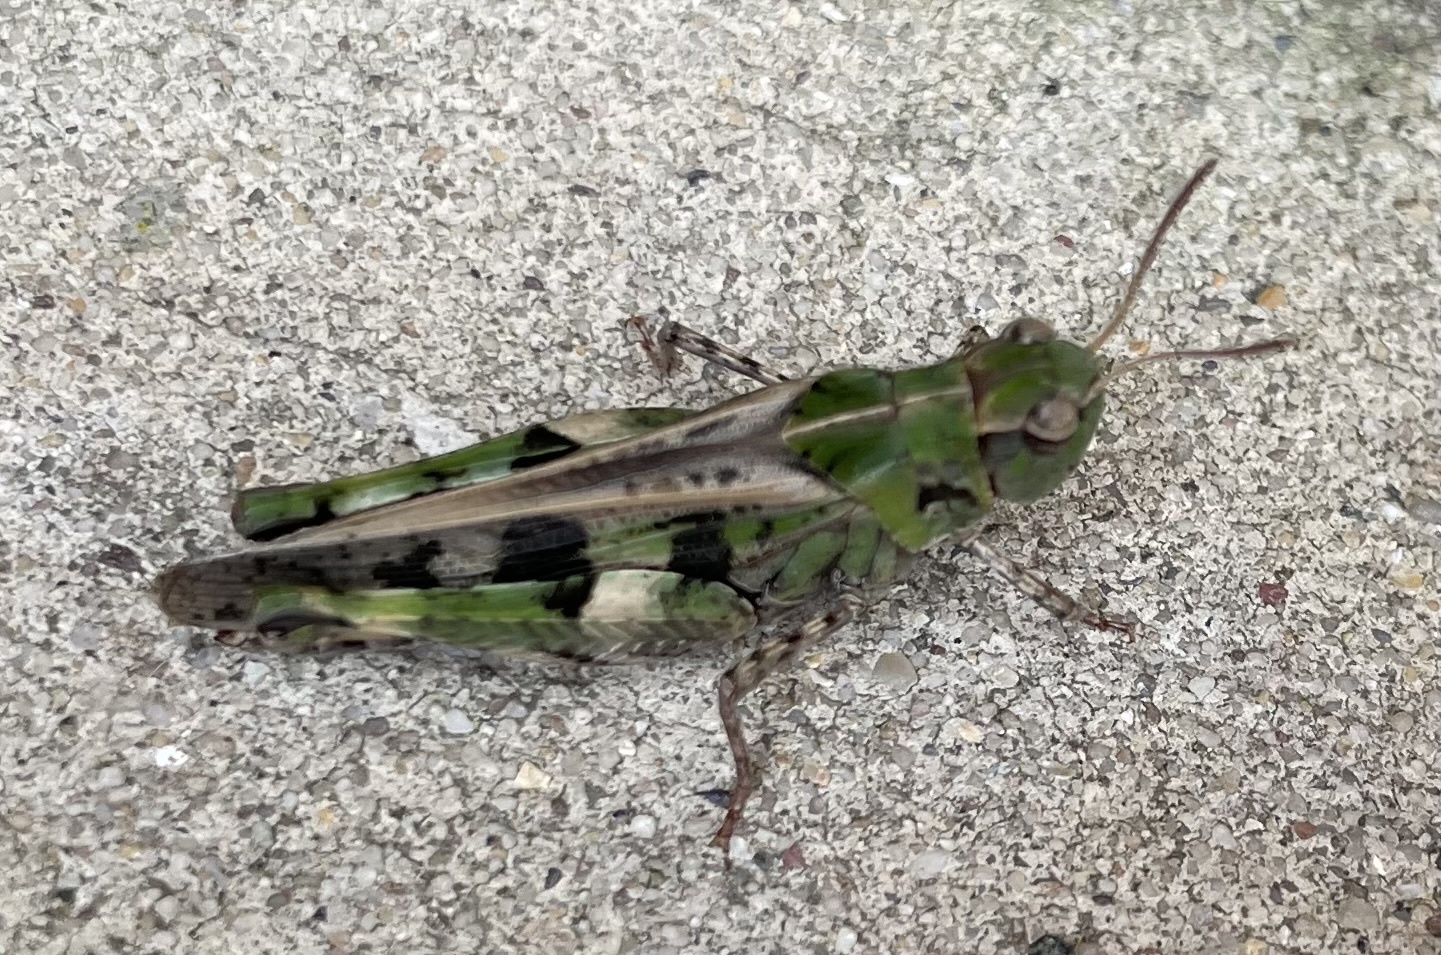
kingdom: Animalia
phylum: Arthropoda
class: Insecta
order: Orthoptera
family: Acrididae
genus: Encoptolophus
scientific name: Encoptolophus costalis
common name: Dusky grasshopper
